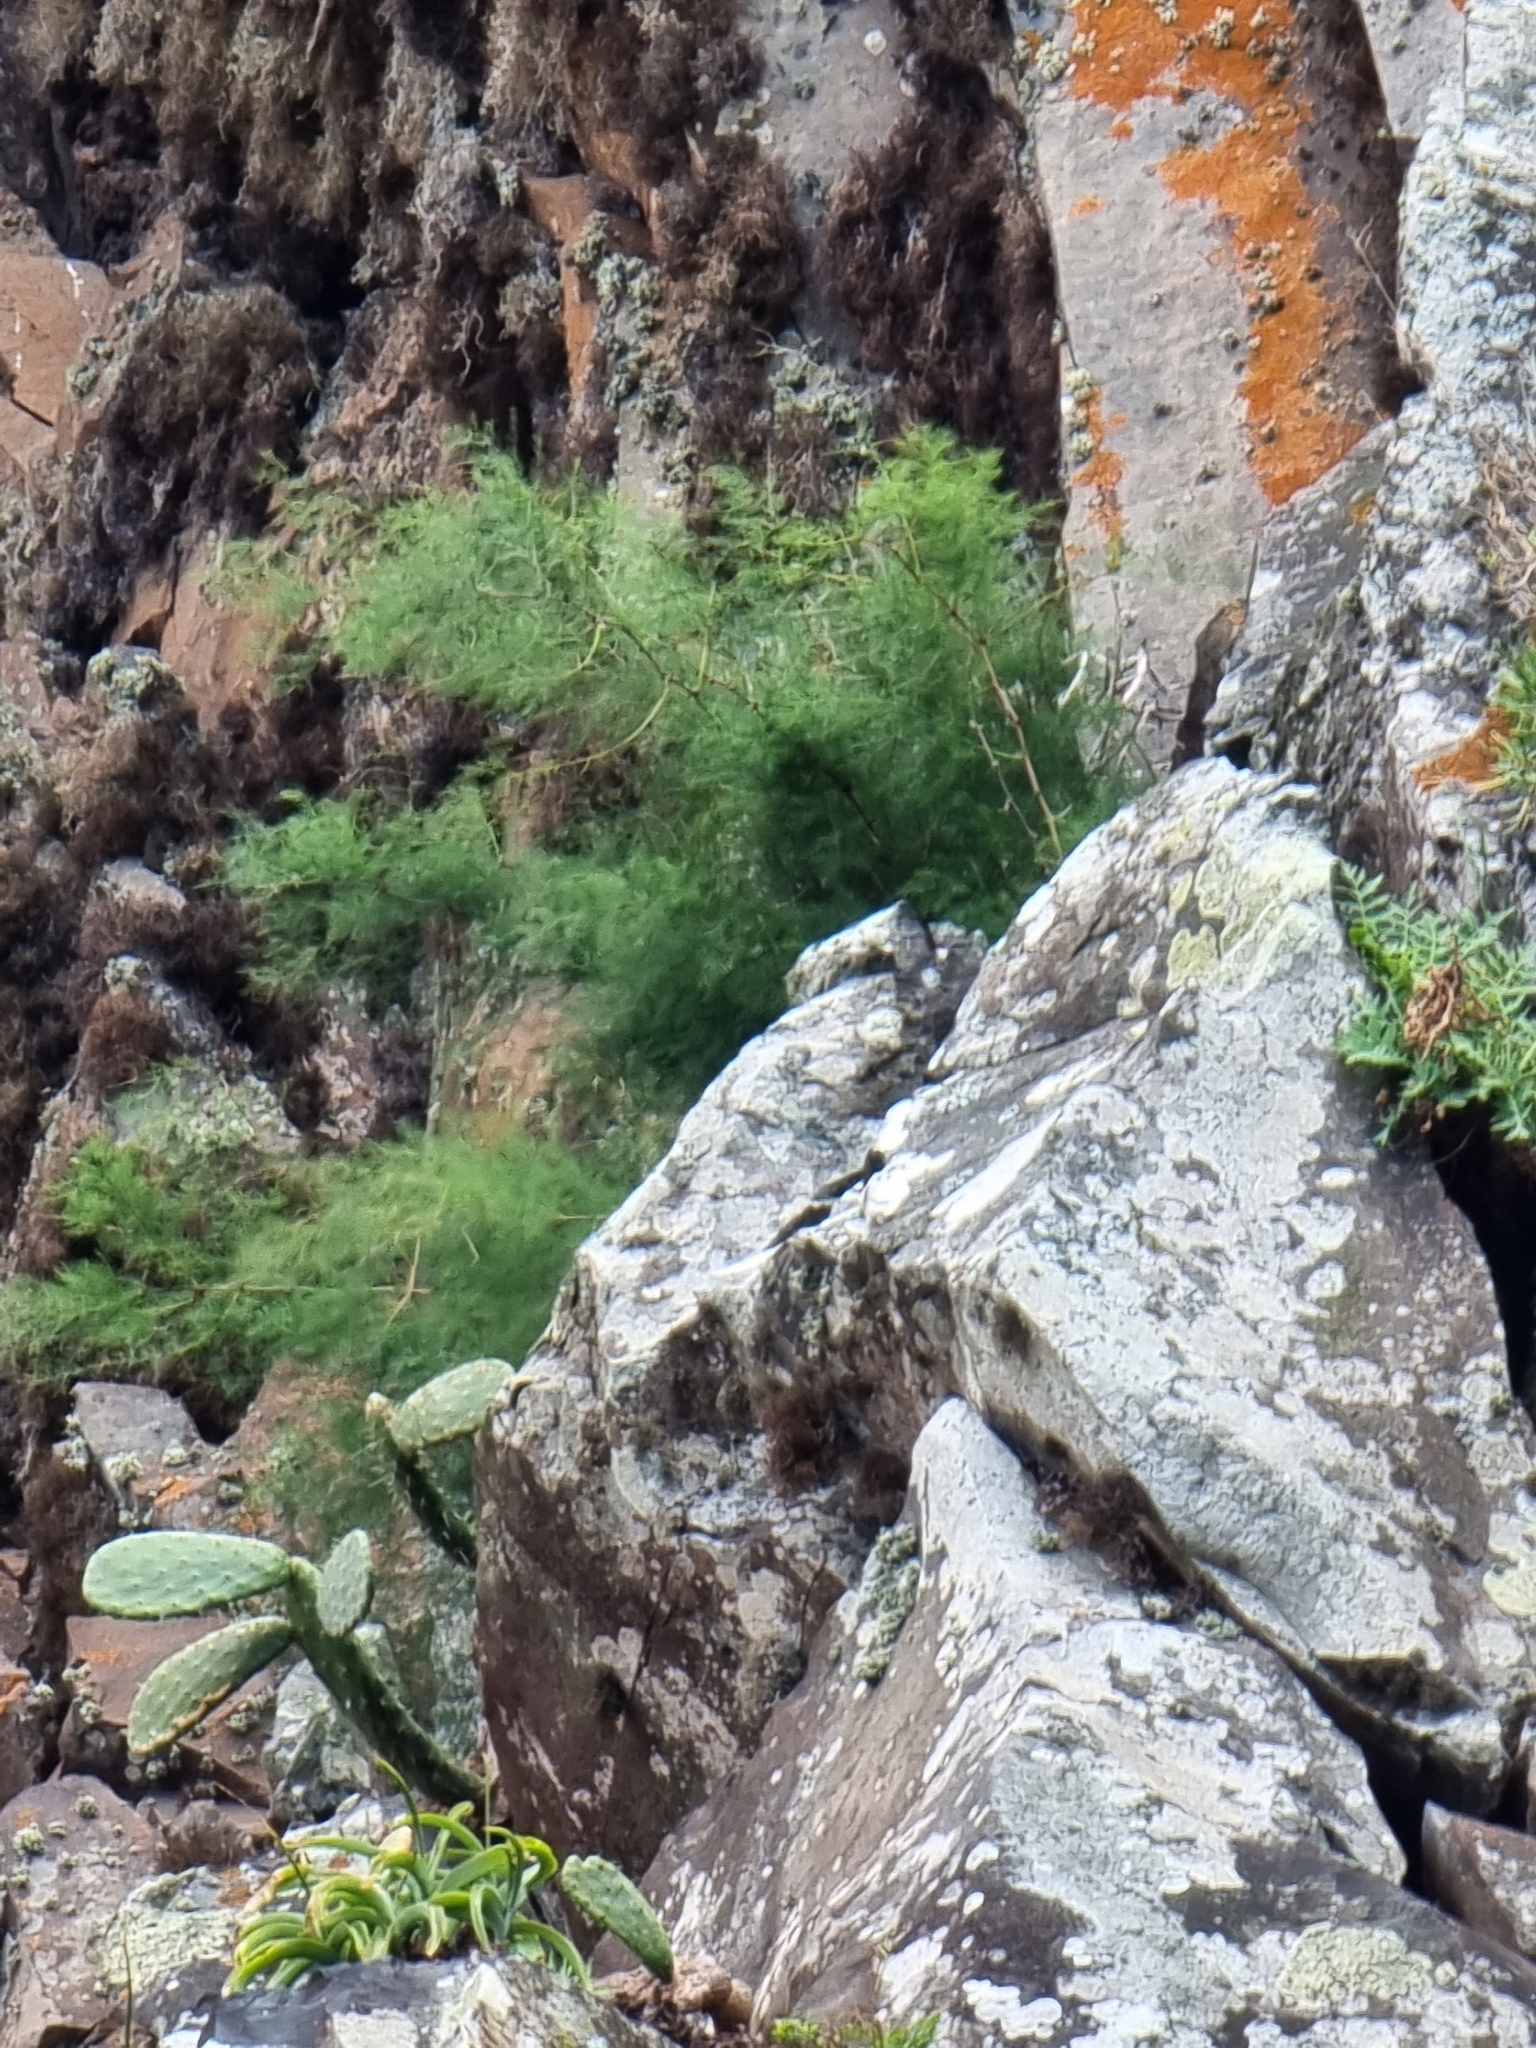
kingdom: Plantae
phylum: Tracheophyta
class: Liliopsida
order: Asparagales
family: Asparagaceae
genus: Asparagus
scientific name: Asparagus umbellatus
